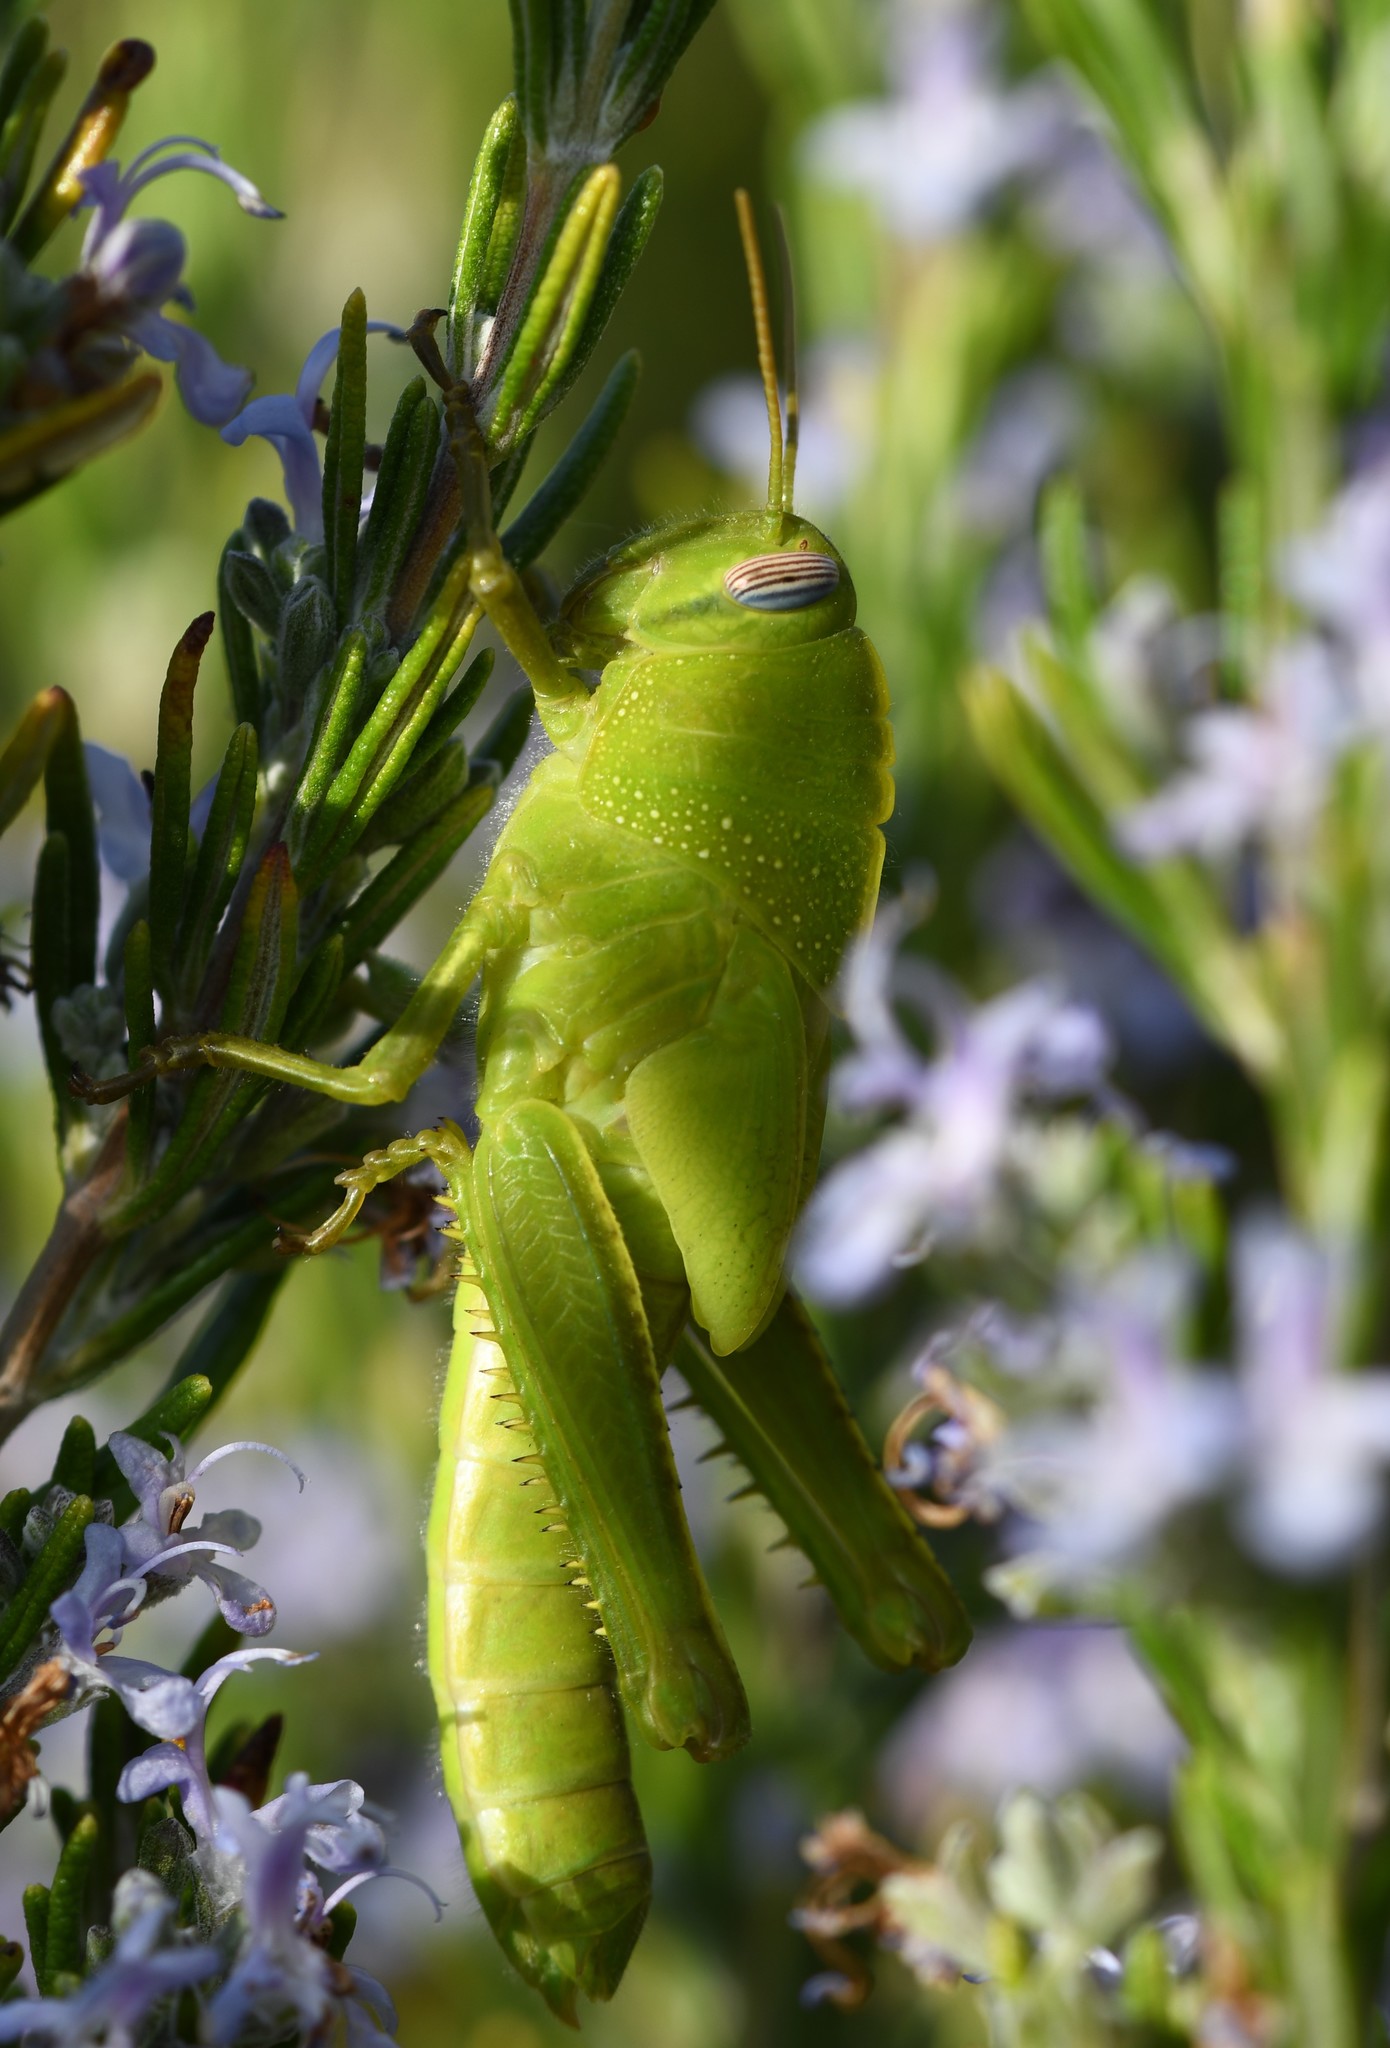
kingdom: Animalia
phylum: Arthropoda
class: Insecta
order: Orthoptera
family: Acrididae
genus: Anacridium
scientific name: Anacridium aegyptium
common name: Egyptian grasshopper
